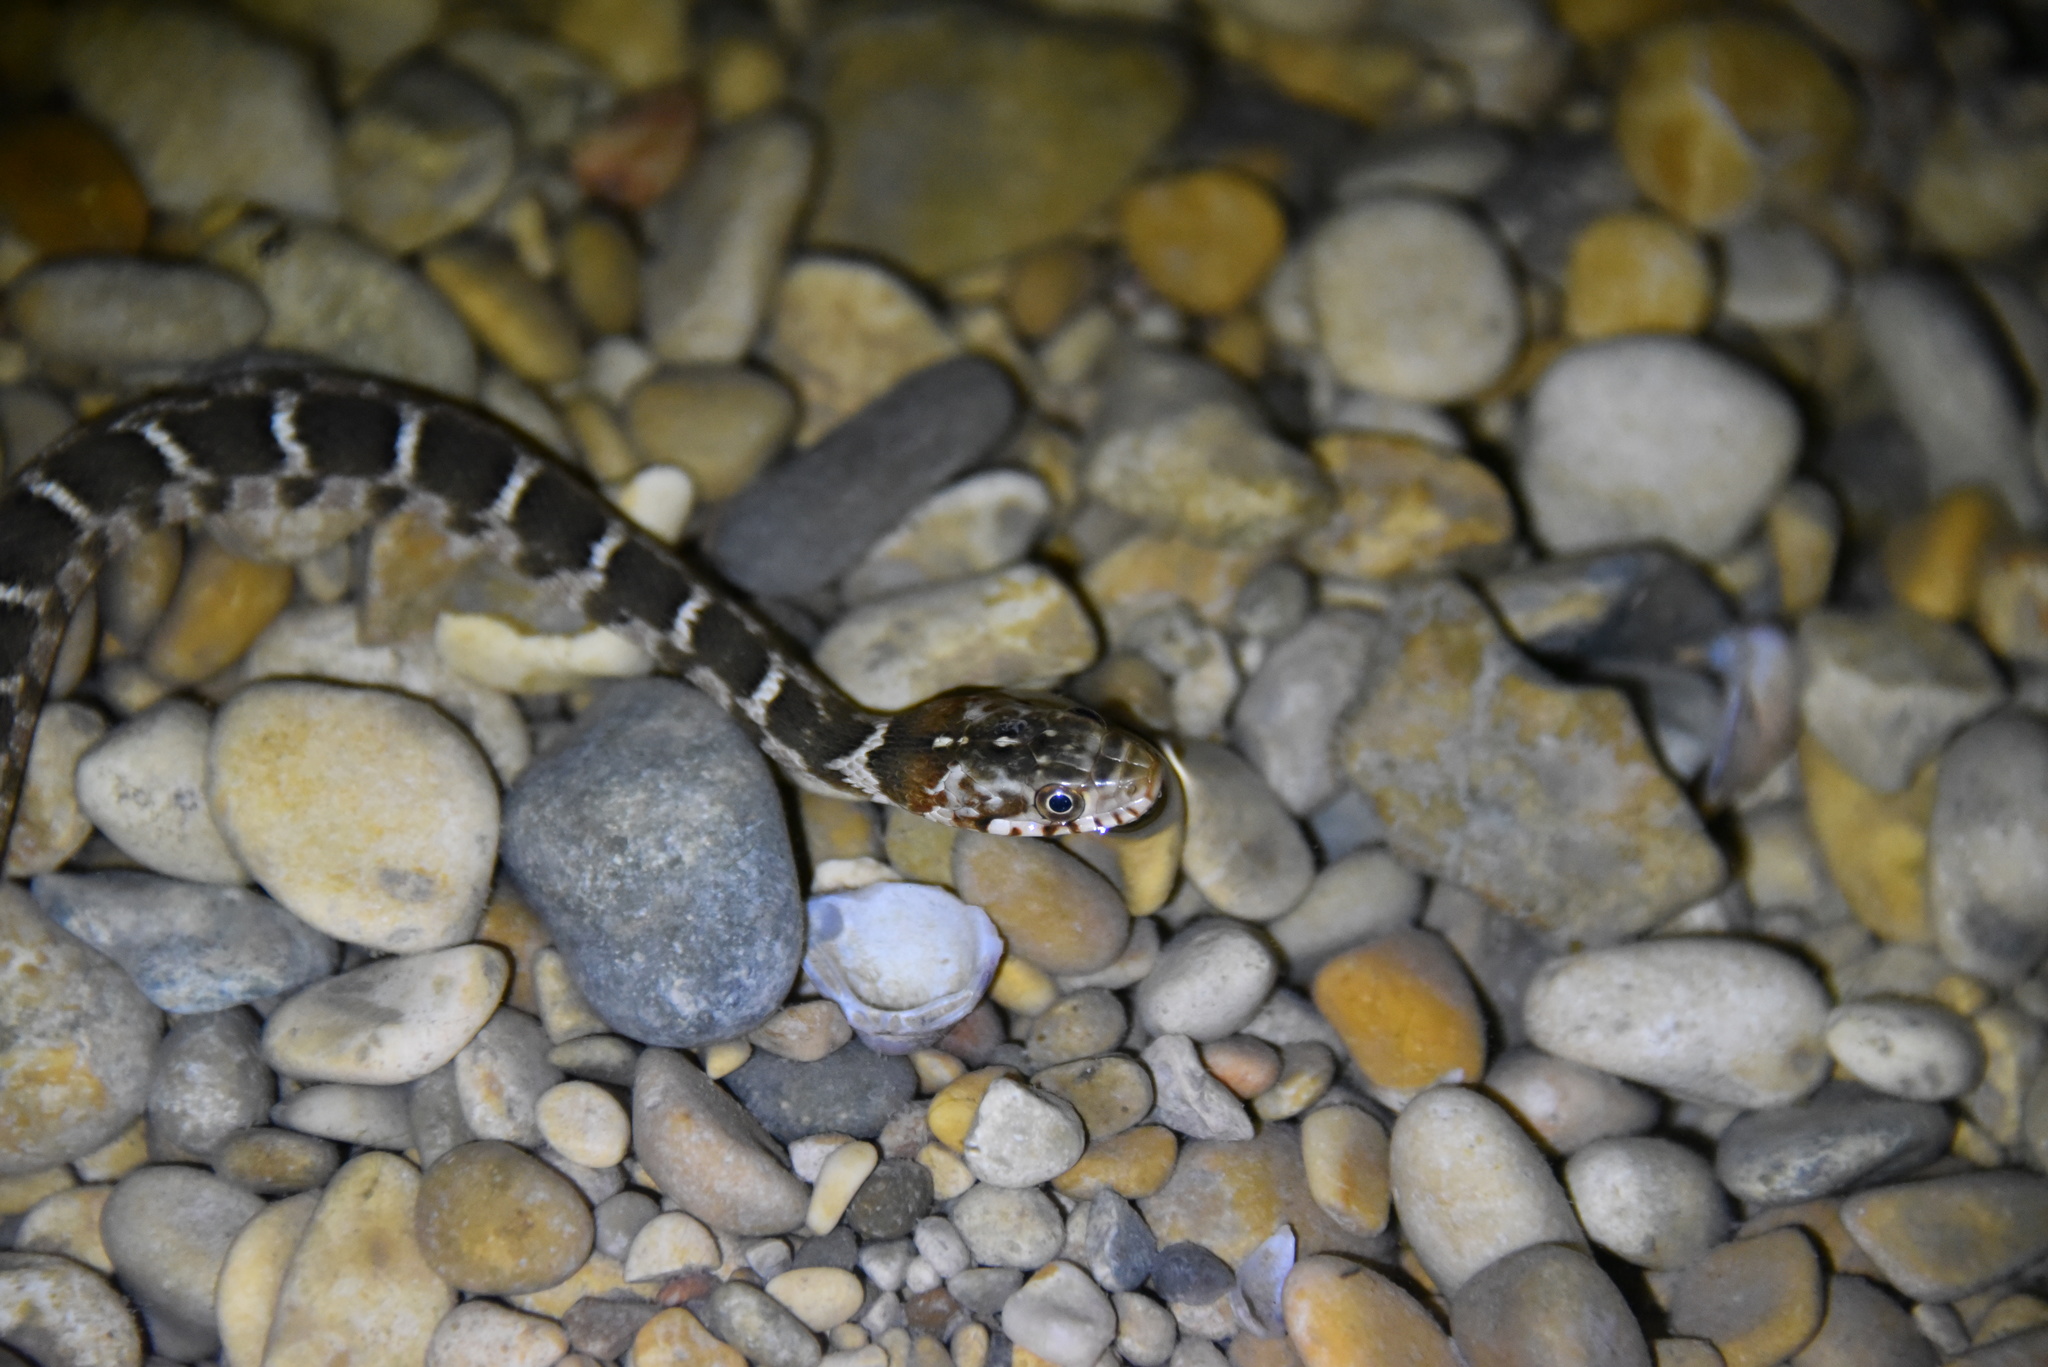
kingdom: Animalia
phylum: Chordata
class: Squamata
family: Colubridae
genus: Nerodia
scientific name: Nerodia erythrogaster
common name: Plainbelly water snake
